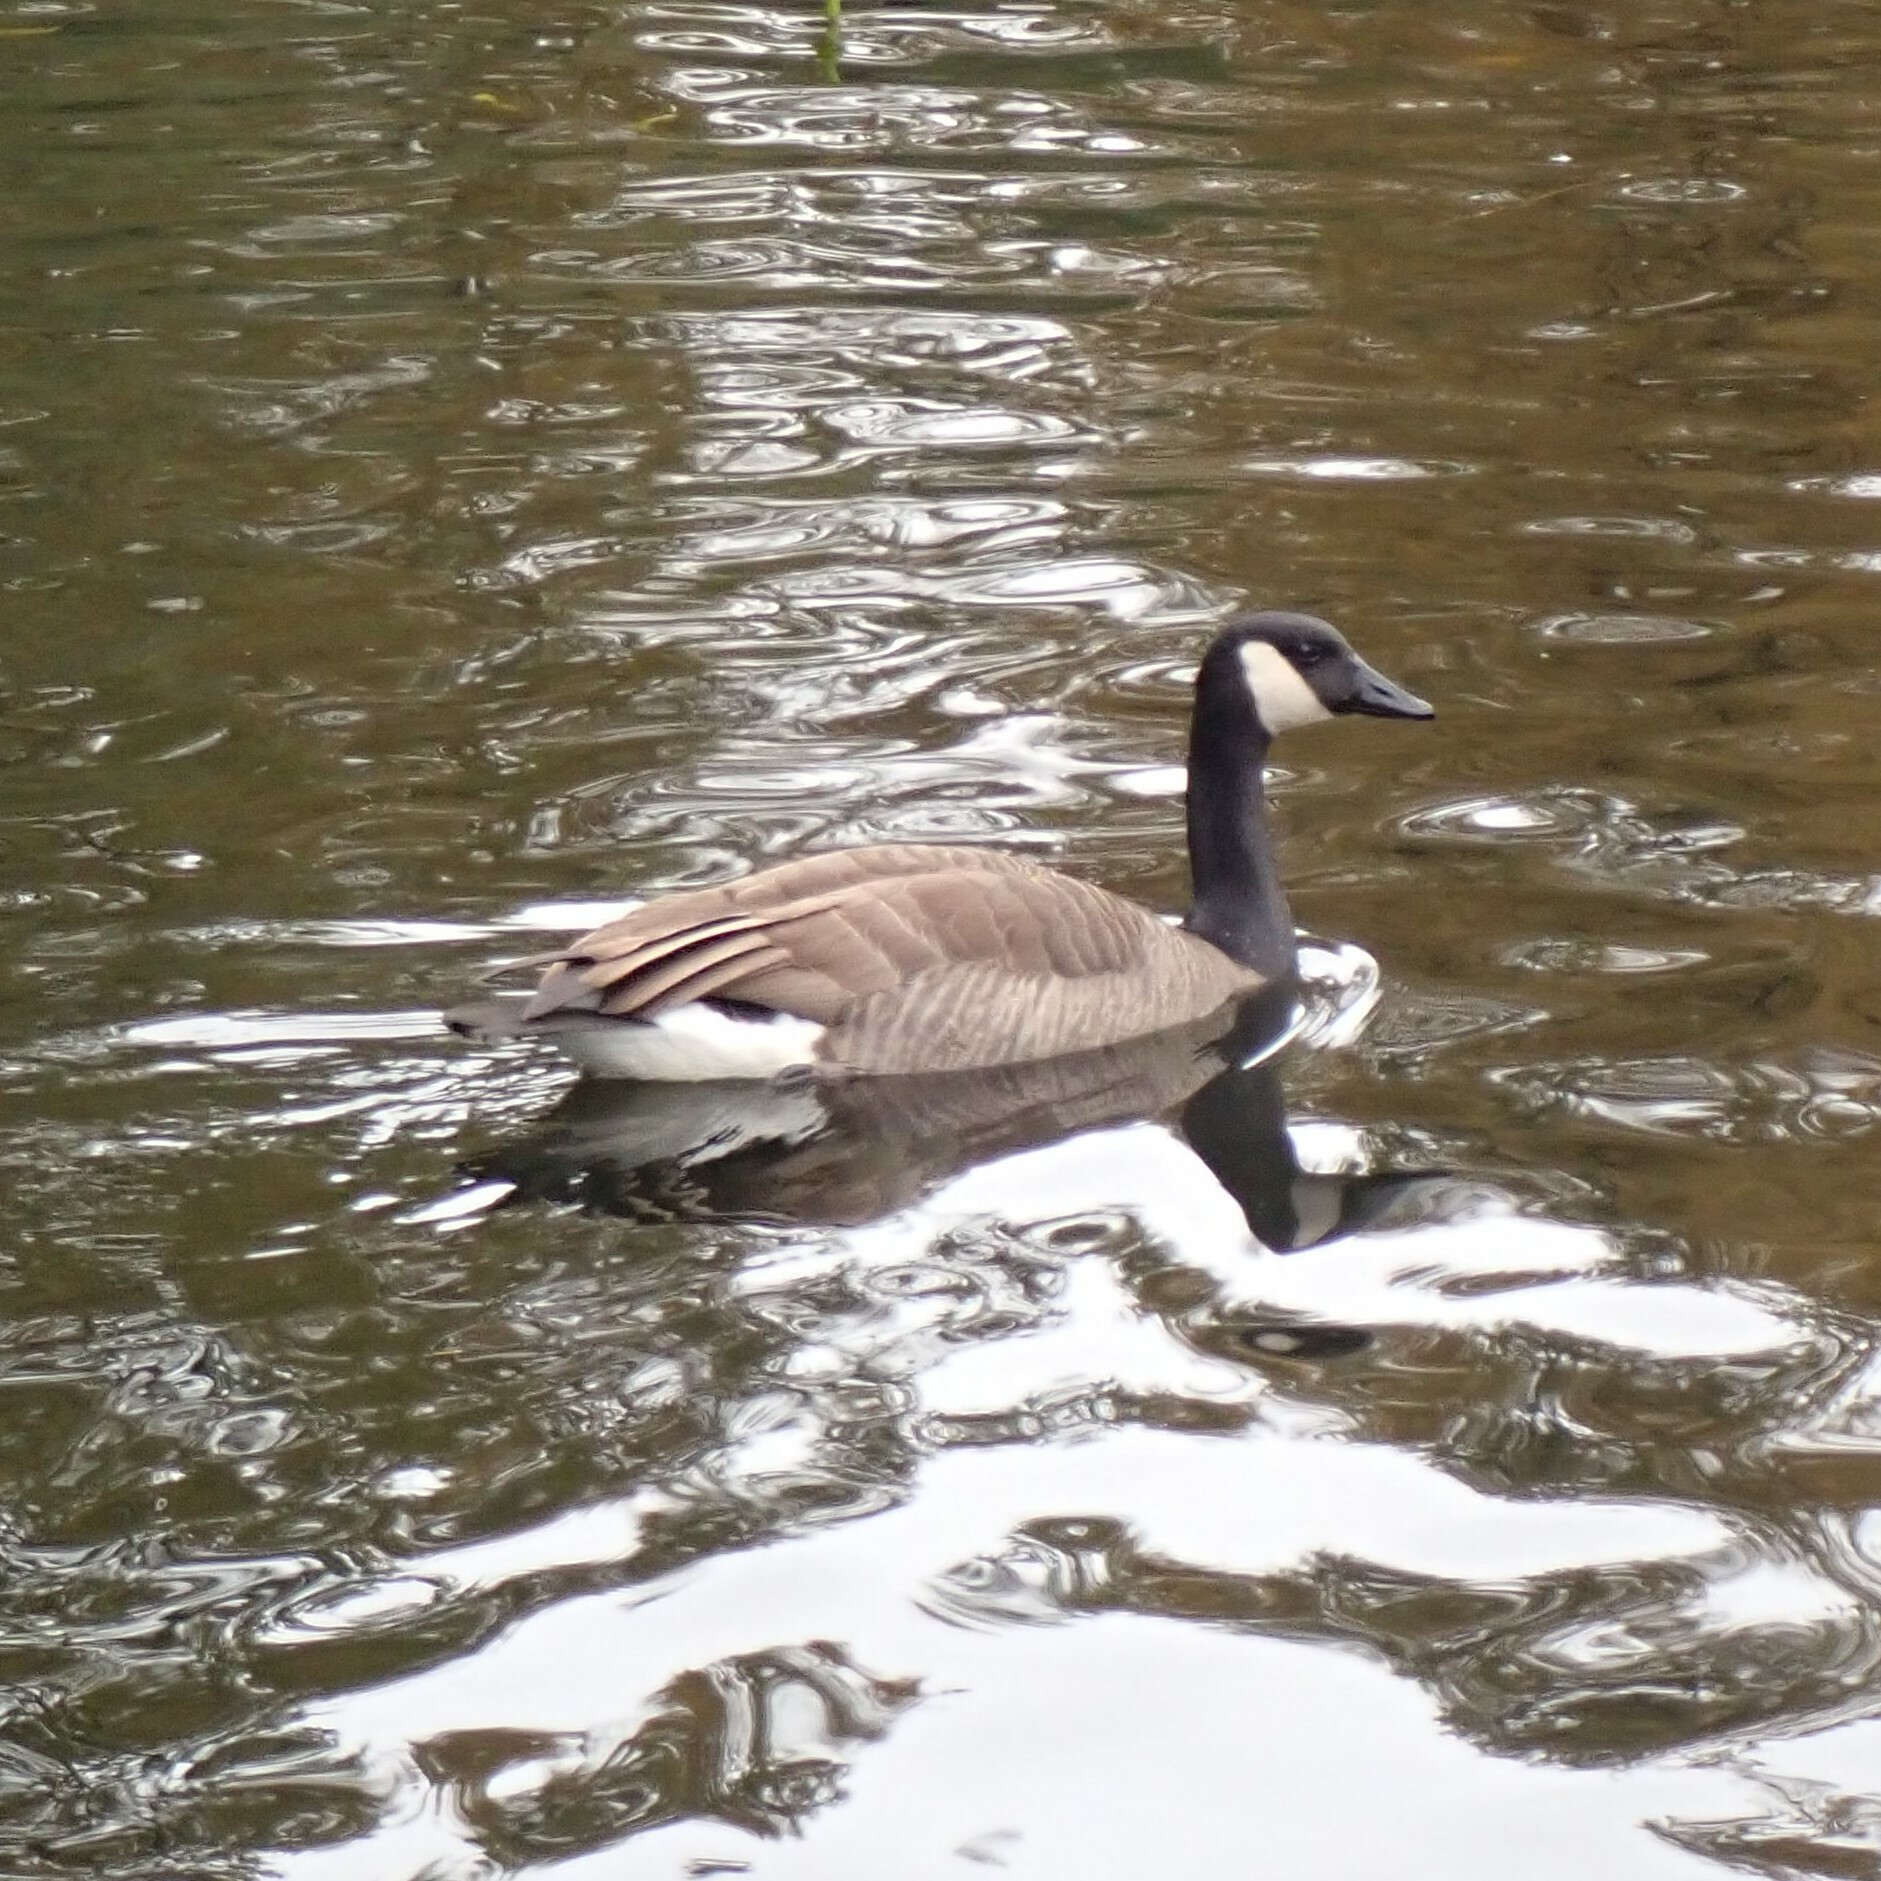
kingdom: Animalia
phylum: Chordata
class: Aves
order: Anseriformes
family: Anatidae
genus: Branta
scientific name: Branta canadensis
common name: Canada goose
